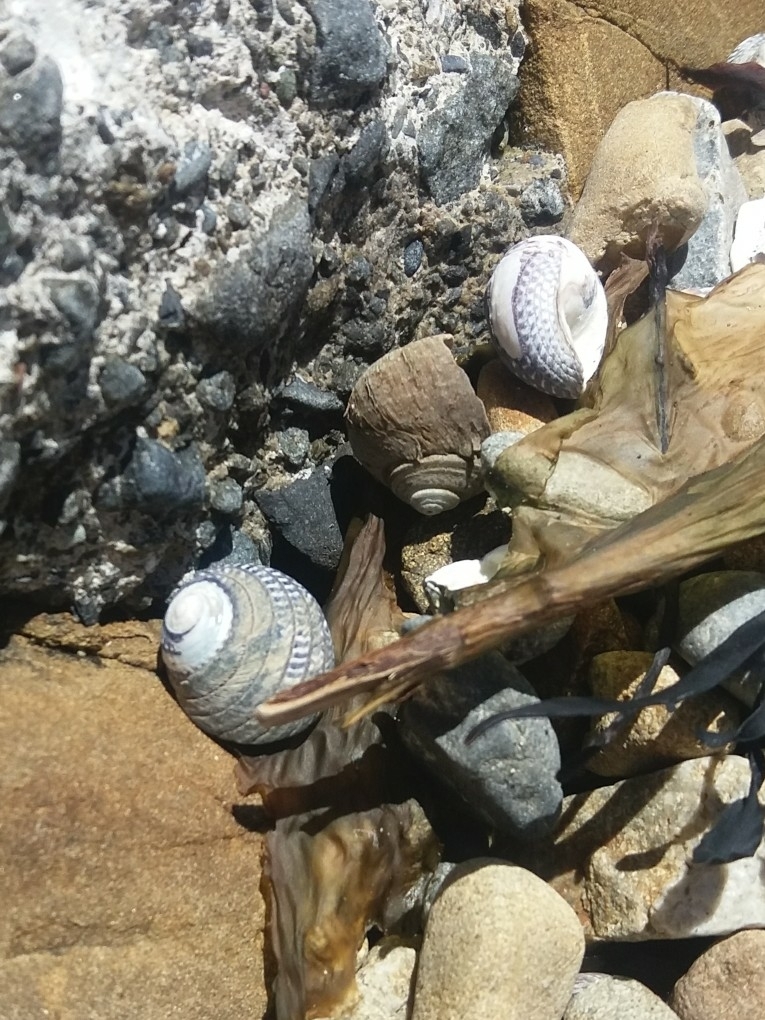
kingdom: Animalia
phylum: Mollusca
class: Gastropoda
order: Trochida
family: Trochidae
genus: Diloma
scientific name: Diloma aethiops
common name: Scorched monodont
